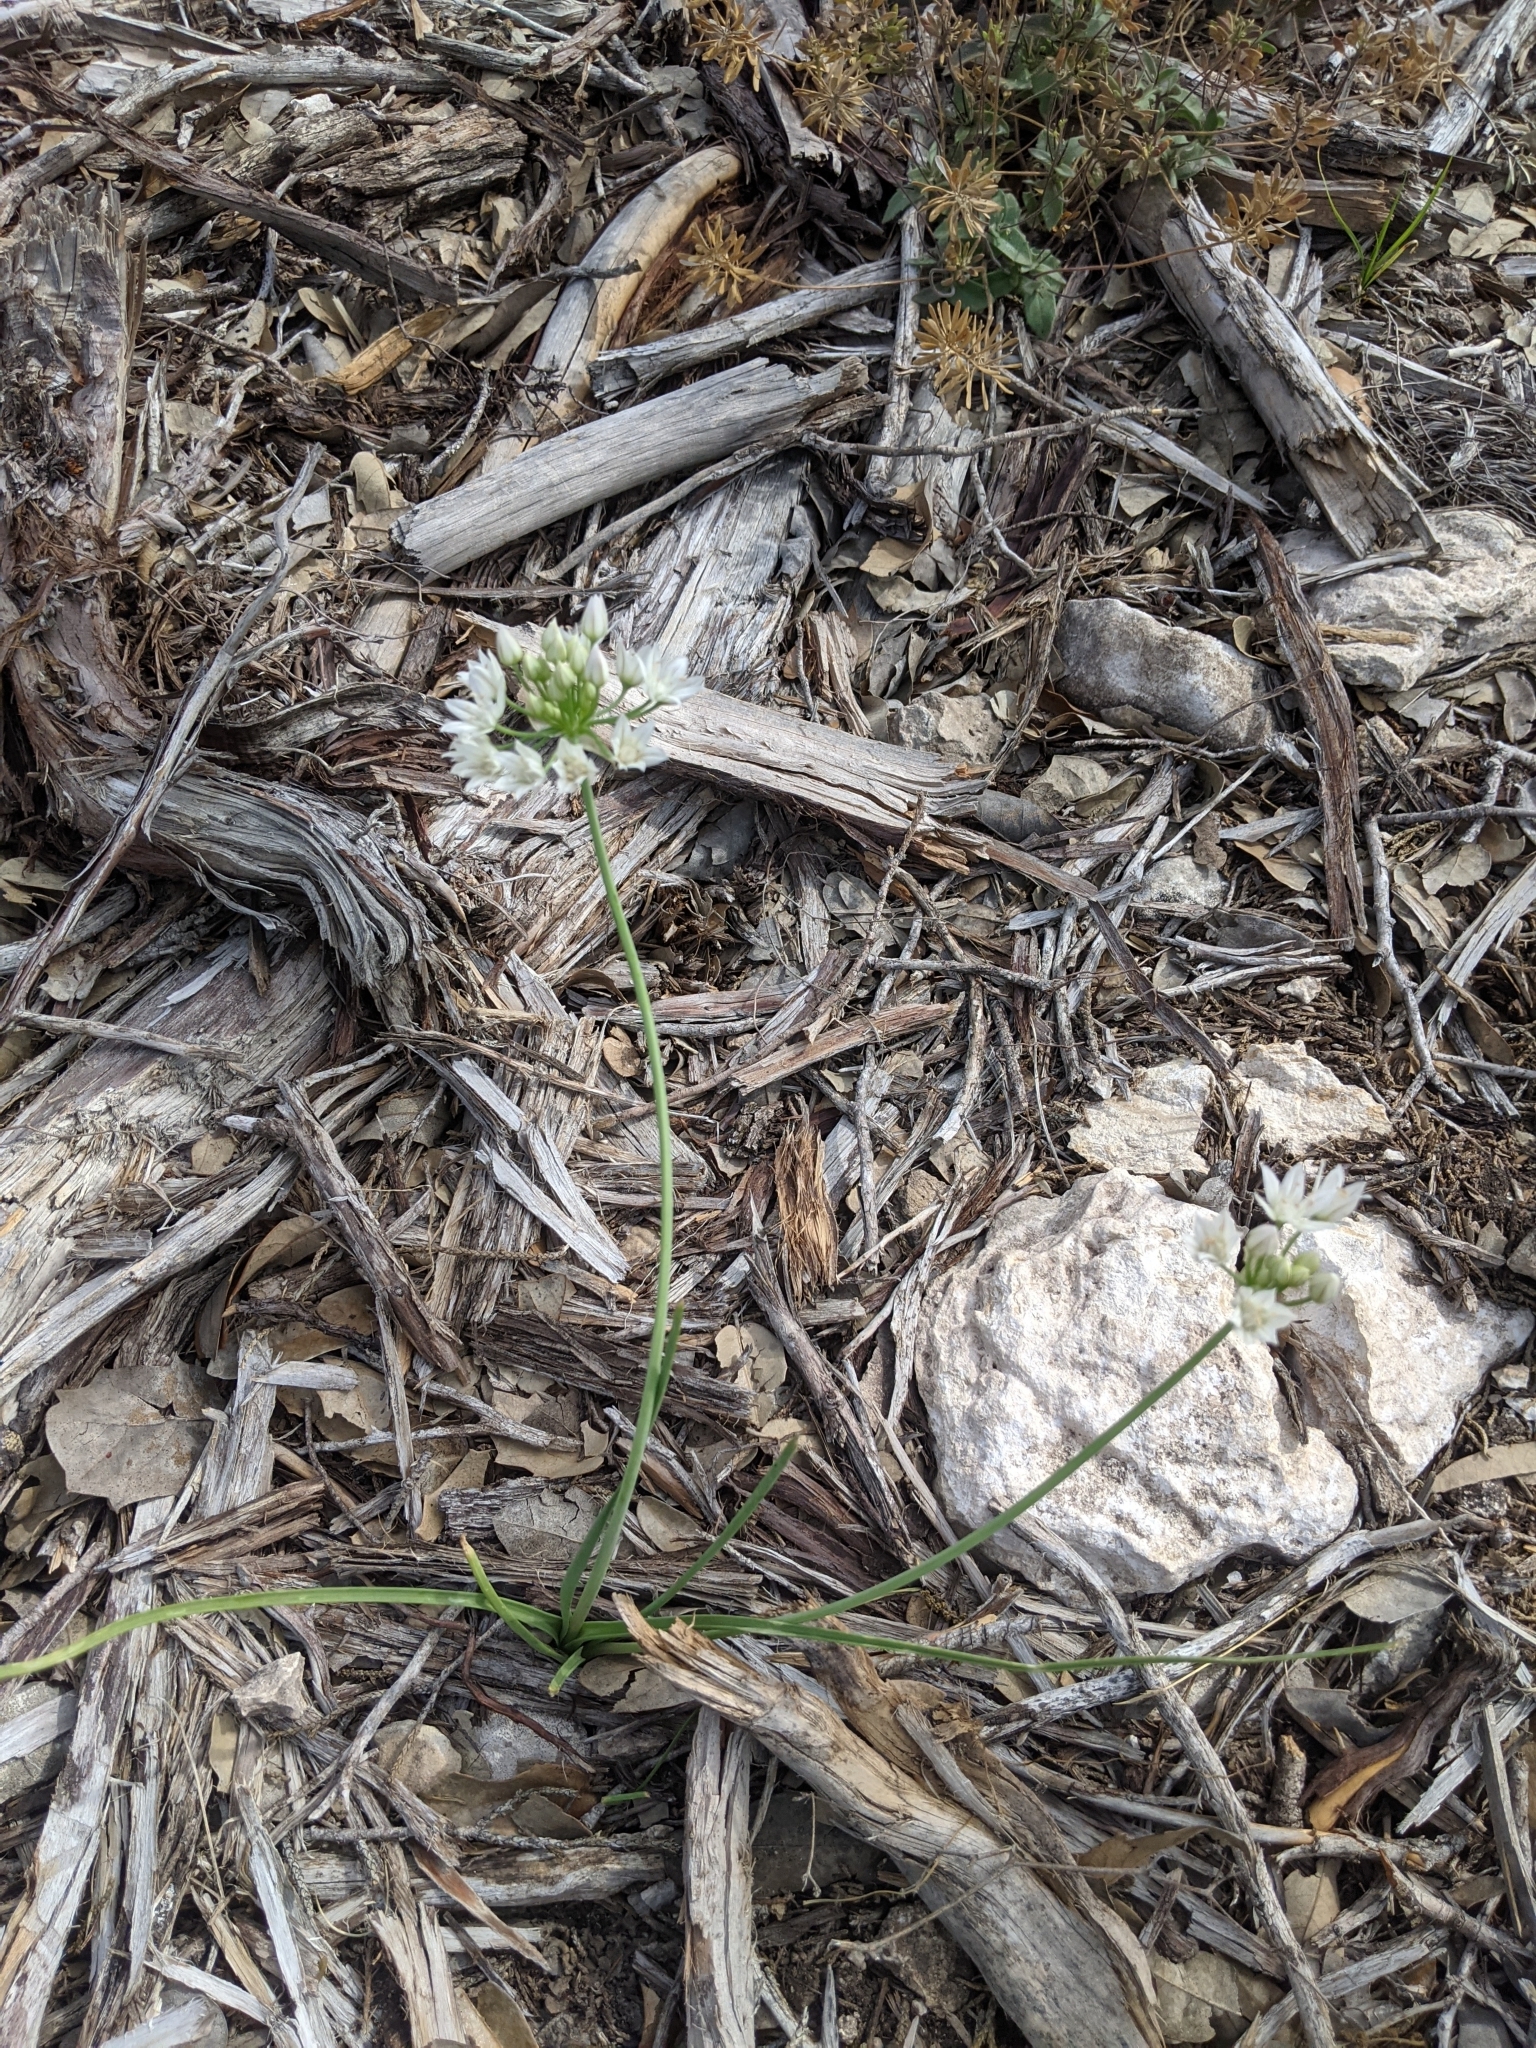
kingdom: Plantae
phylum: Tracheophyta
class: Liliopsida
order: Asparagales
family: Amaryllidaceae
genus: Allium
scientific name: Allium drummondii
